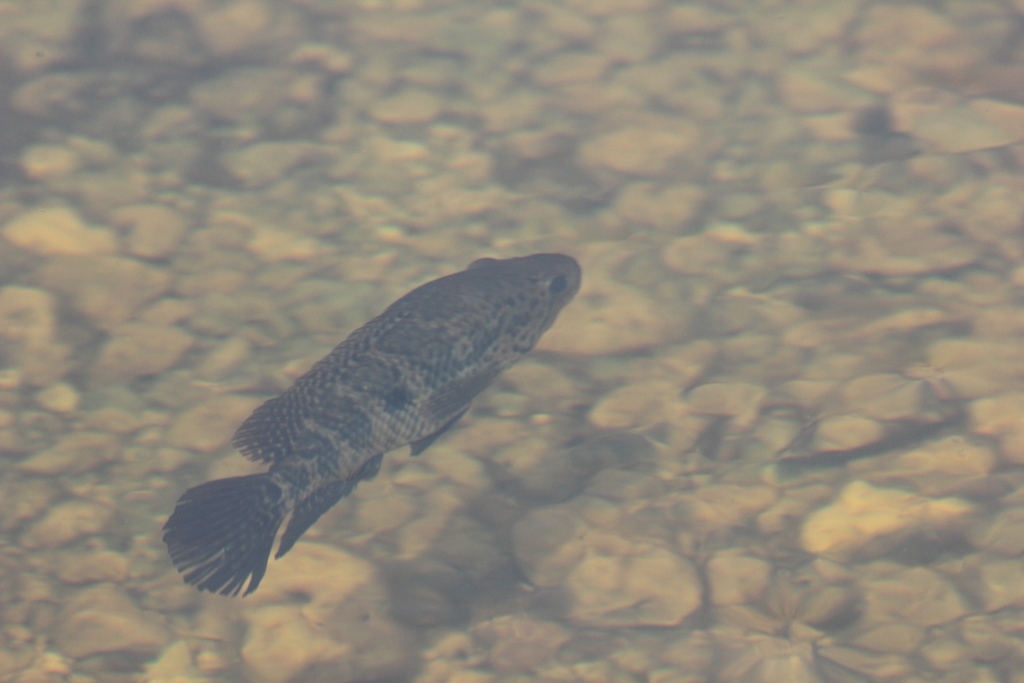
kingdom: Animalia
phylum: Chordata
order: Perciformes
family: Cichlidae
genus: Parachromis
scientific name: Parachromis managuensis
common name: Jaguar guapote
